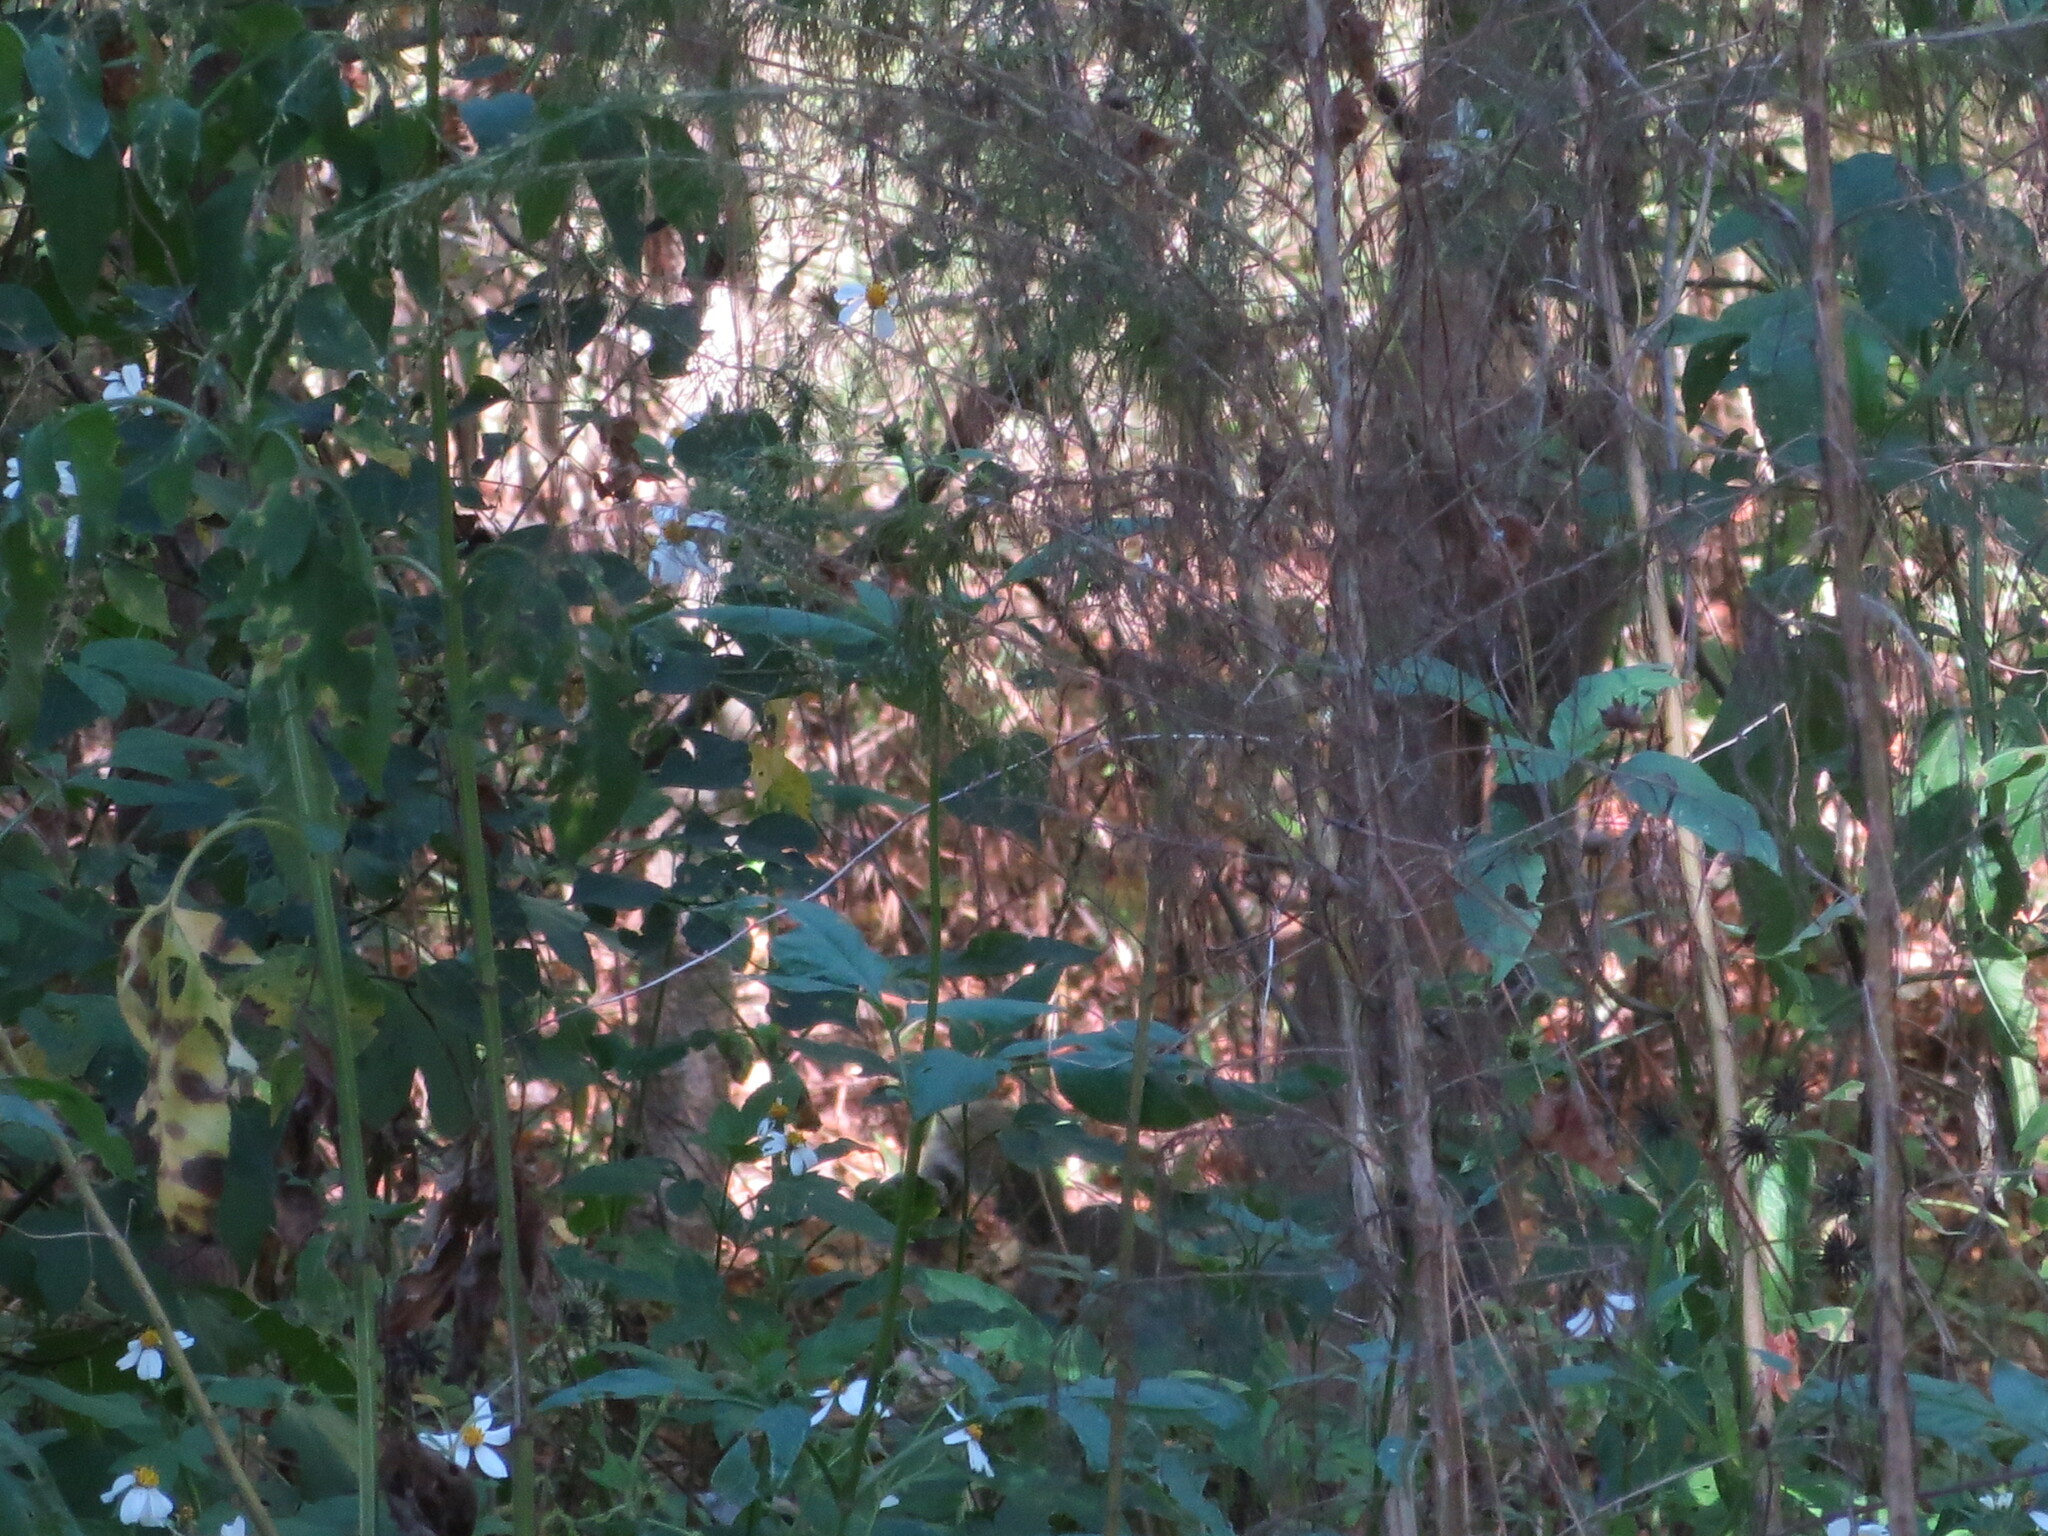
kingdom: Animalia
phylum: Chordata
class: Mammalia
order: Rodentia
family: Sciuridae
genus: Sciurus
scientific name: Sciurus carolinensis
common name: Eastern gray squirrel
